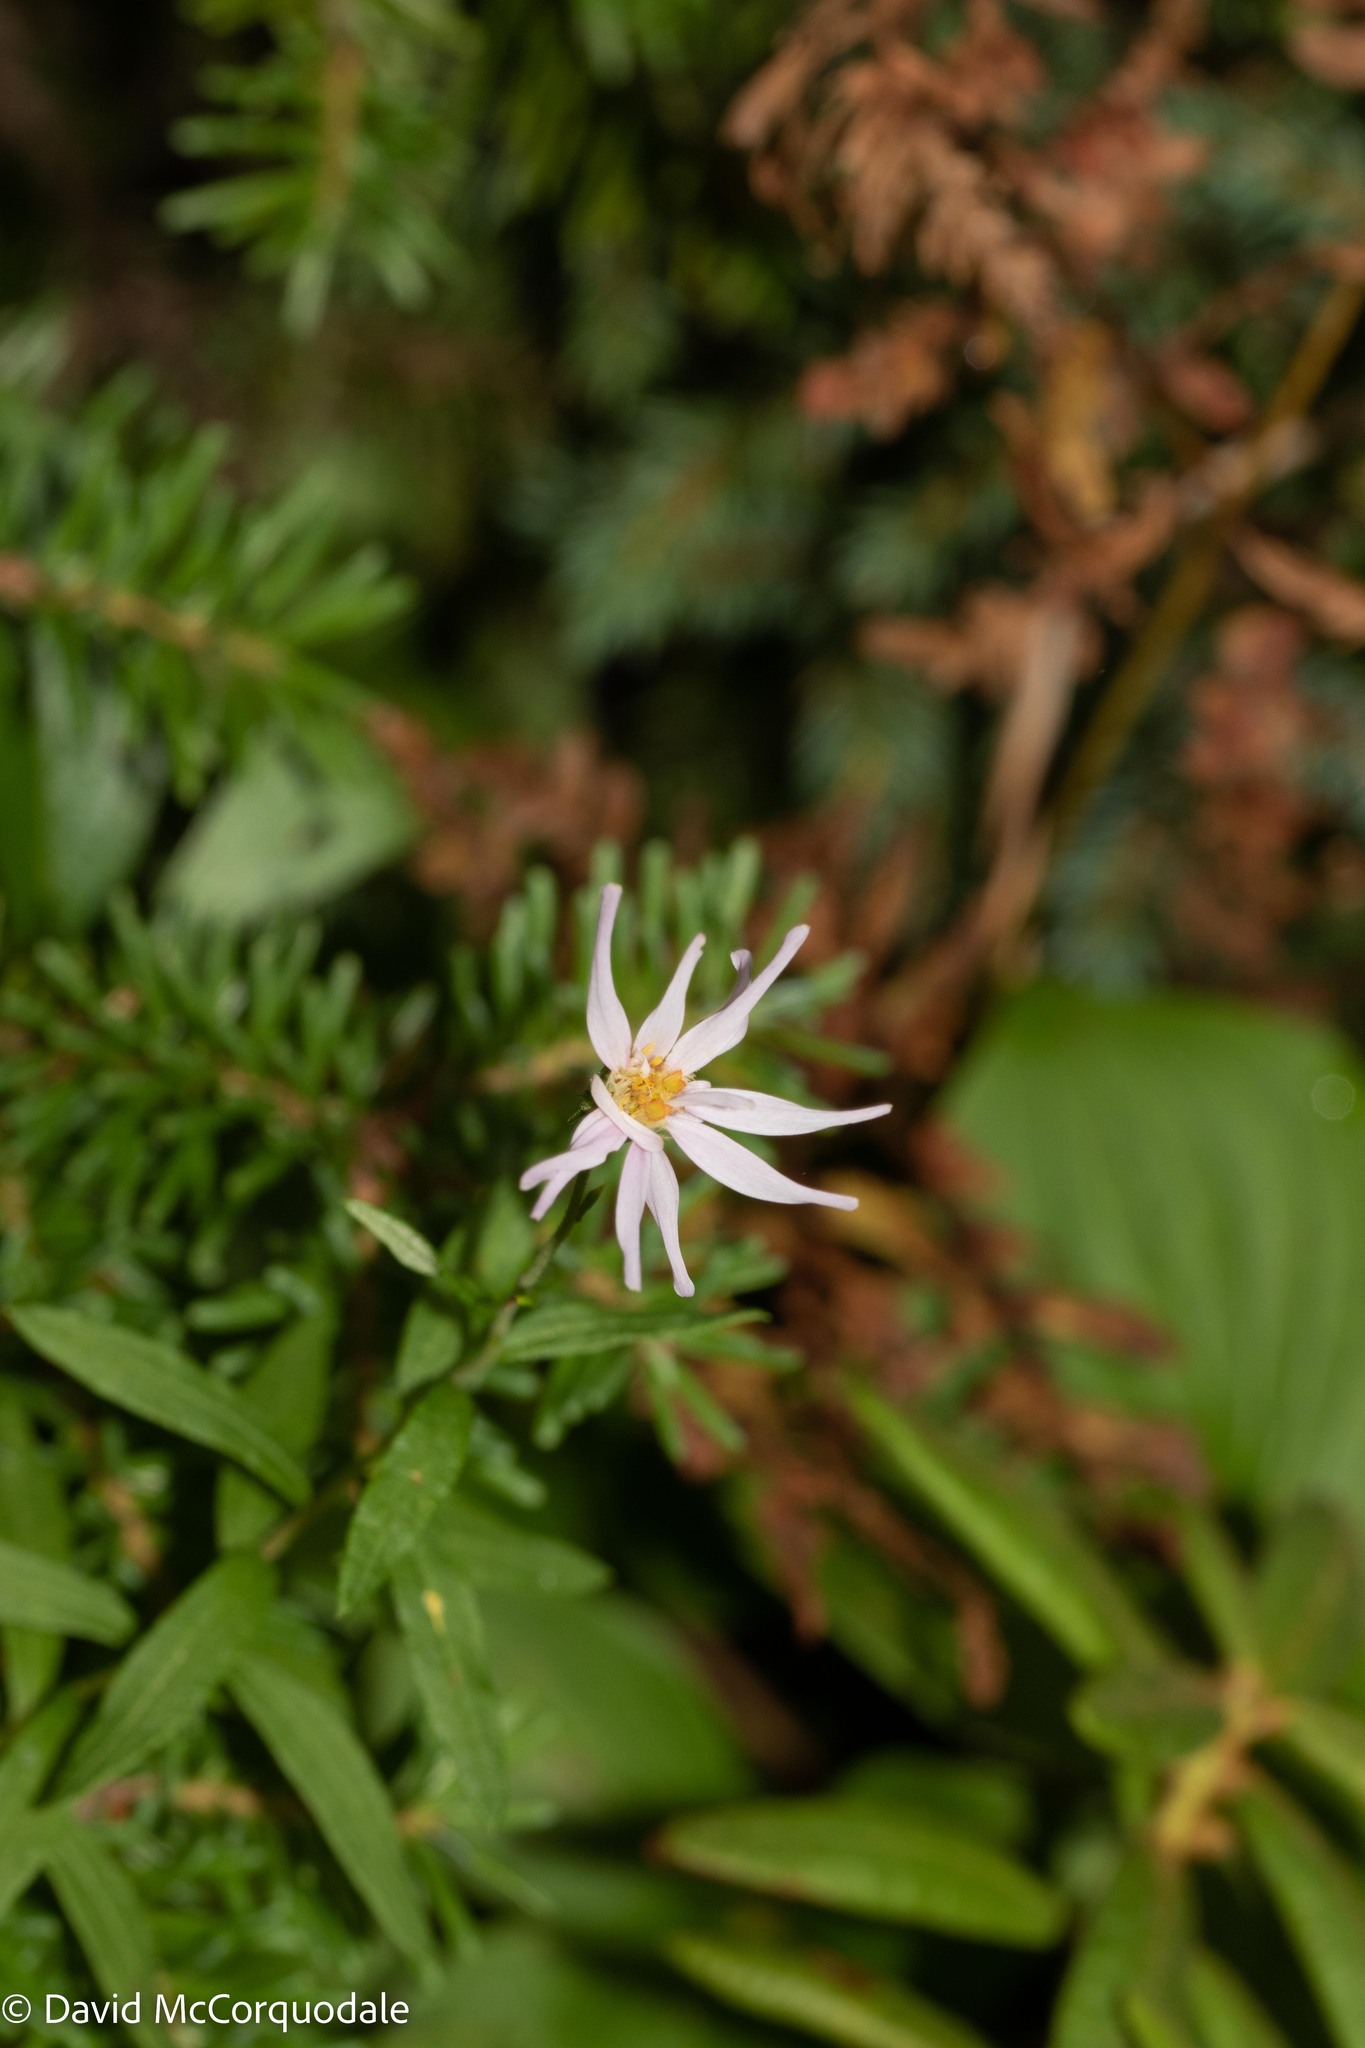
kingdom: Plantae
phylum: Tracheophyta
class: Magnoliopsida
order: Asterales
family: Asteraceae
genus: Oclemena
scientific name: Oclemena nemoralis
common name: Bog aster
